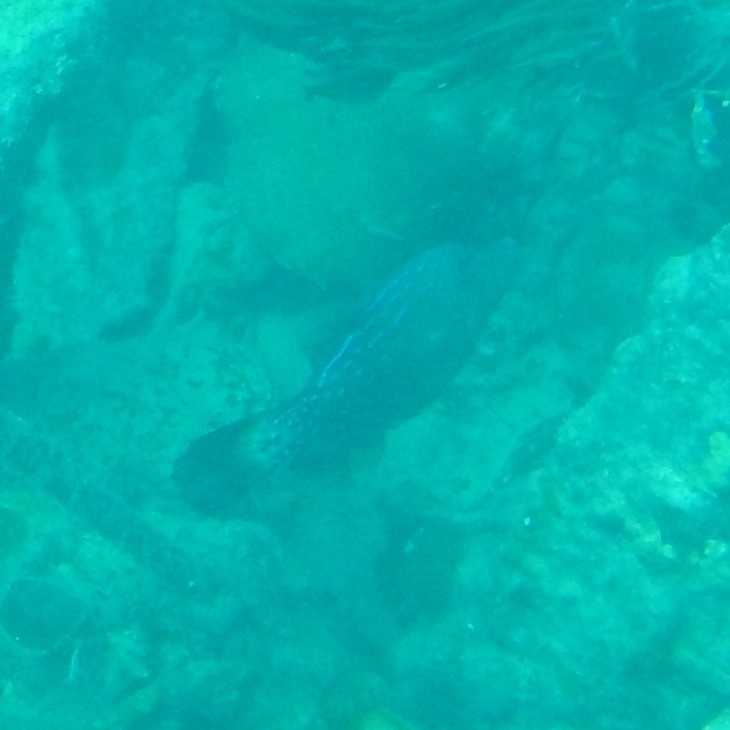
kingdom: Animalia
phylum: Chordata
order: Tetraodontiformes
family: Monacanthidae
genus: Aluterus
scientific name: Aluterus scriptus
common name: Scribbled leatherjacket filefish
